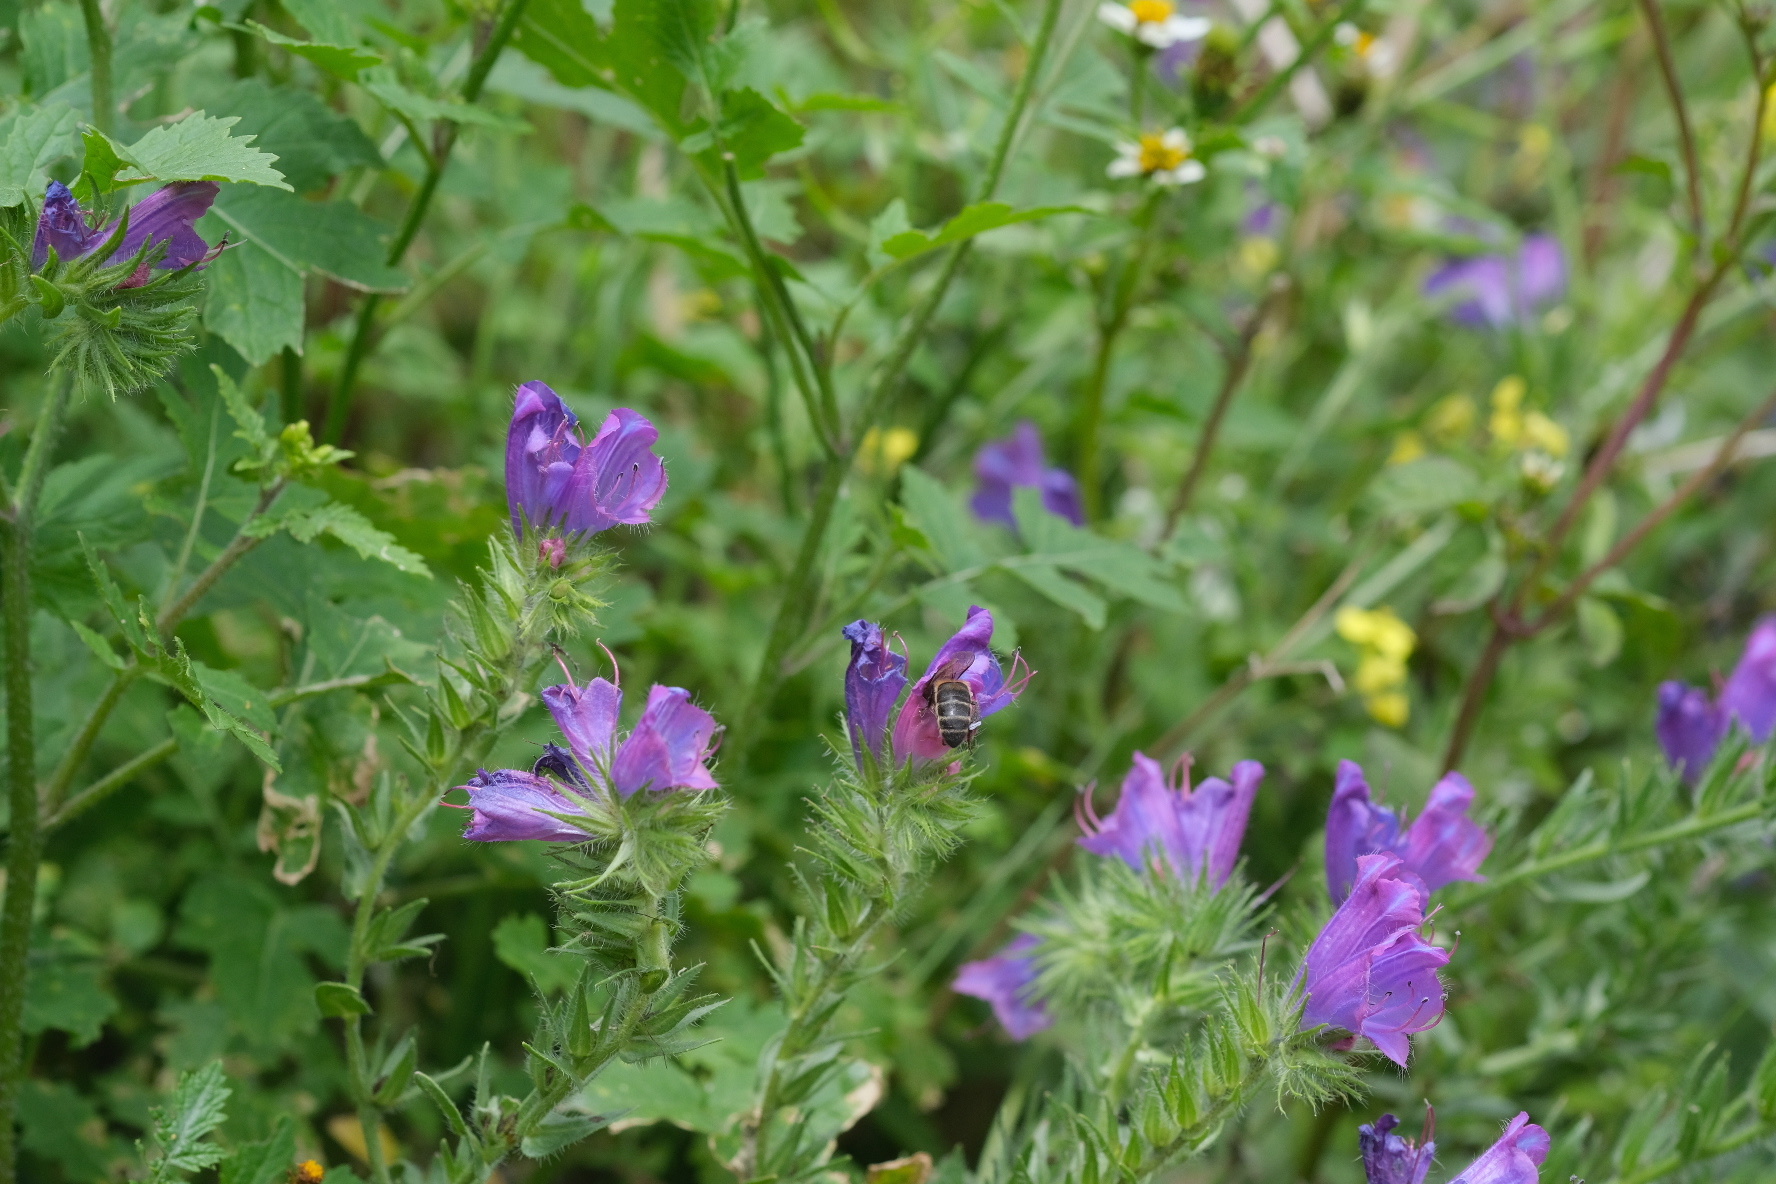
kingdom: Plantae
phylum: Tracheophyta
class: Magnoliopsida
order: Boraginales
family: Boraginaceae
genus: Echium
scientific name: Echium plantagineum
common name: Purple viper's-bugloss
